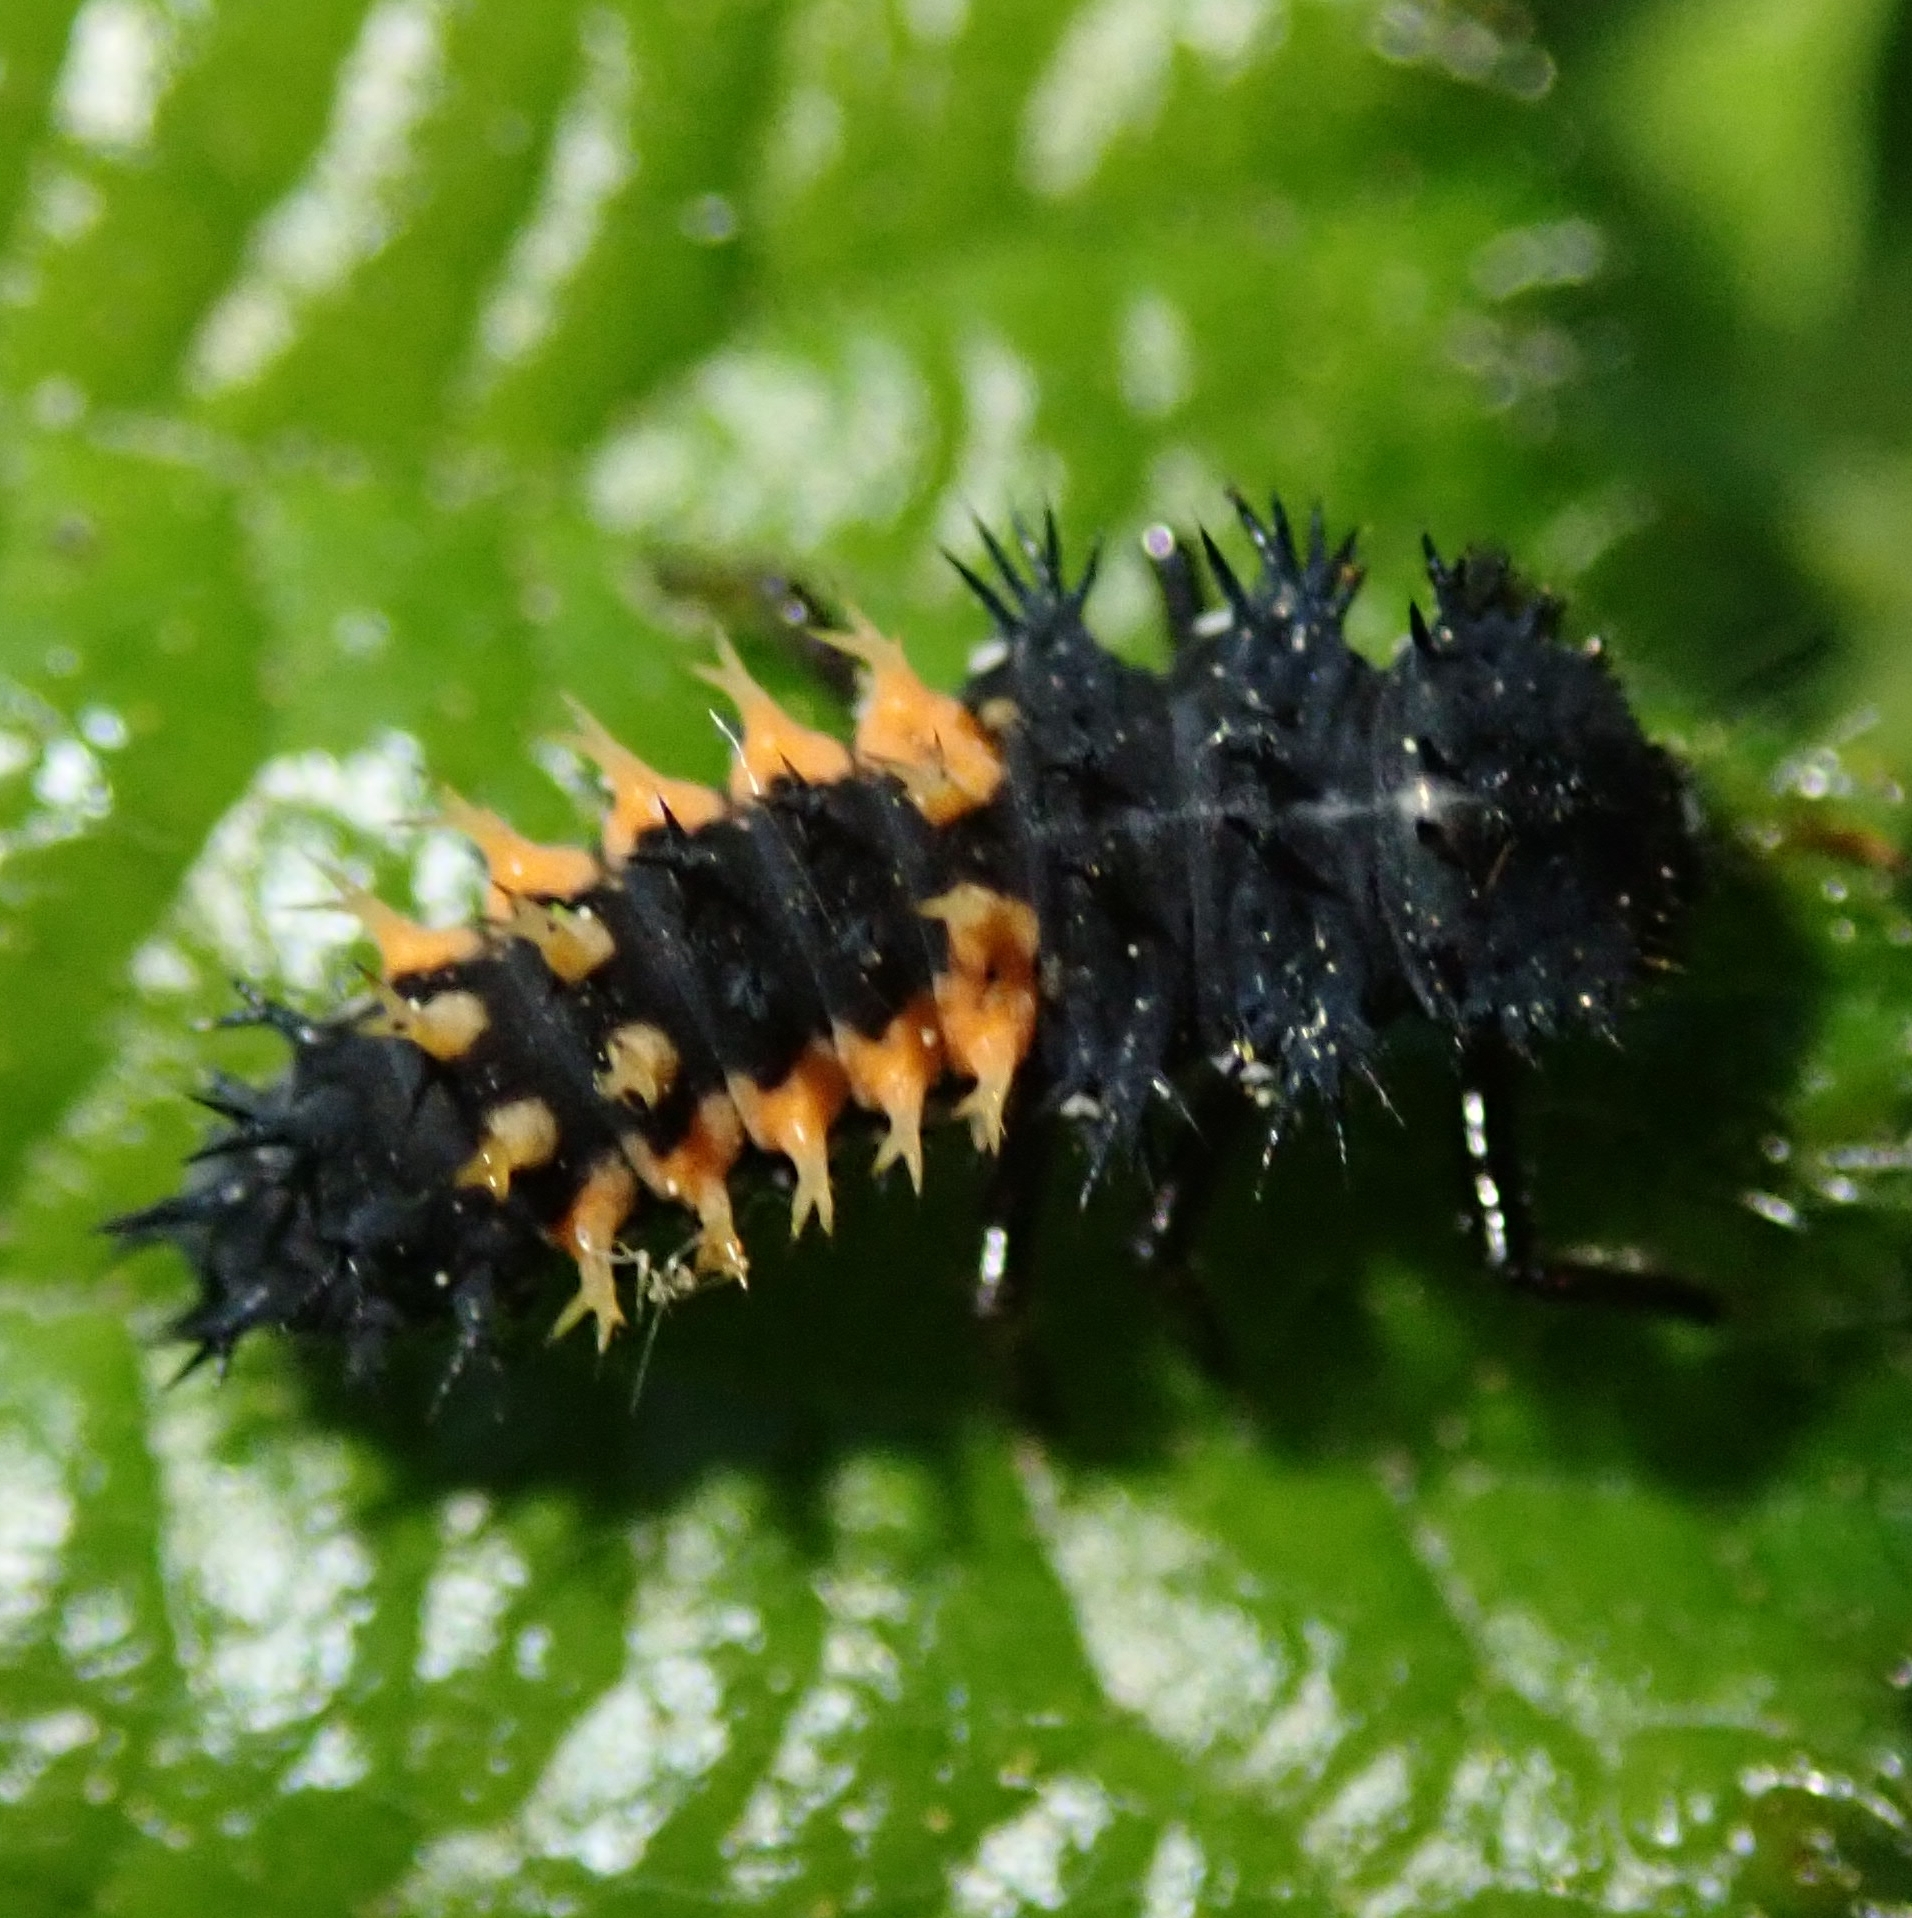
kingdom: Animalia
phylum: Arthropoda
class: Insecta
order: Coleoptera
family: Coccinellidae
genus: Harmonia
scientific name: Harmonia axyridis
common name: Harlequin ladybird
